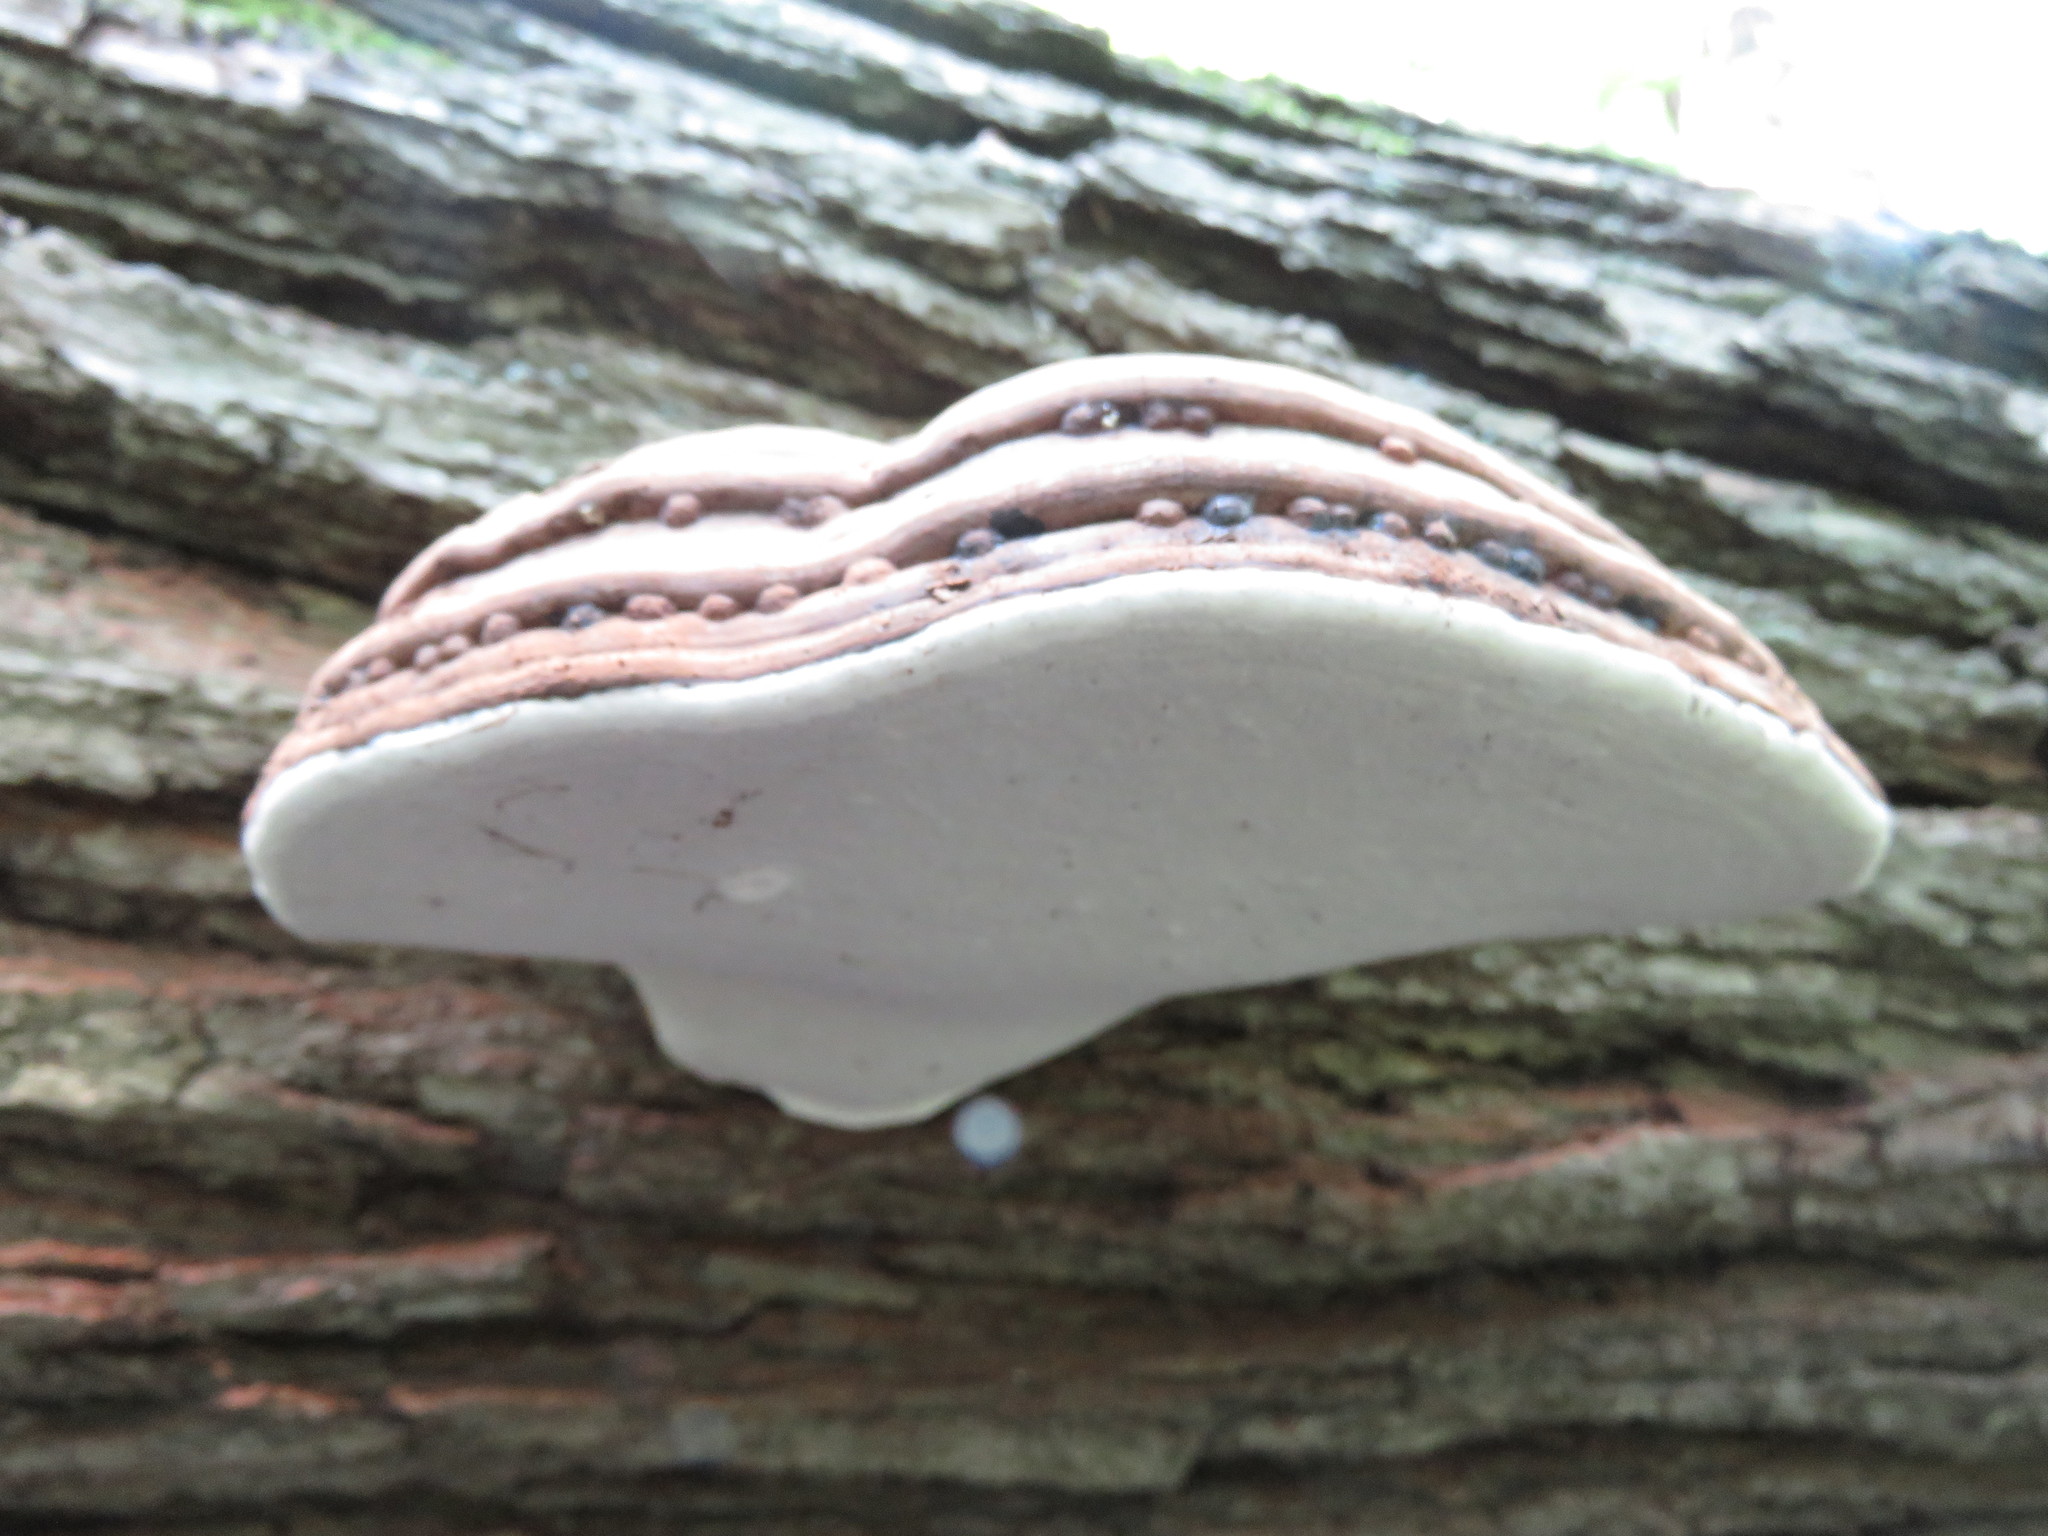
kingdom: Fungi
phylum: Basidiomycota
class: Agaricomycetes
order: Polyporales
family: Polyporaceae
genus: Ganoderma
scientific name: Ganoderma applanatum
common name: Artist's bracket
